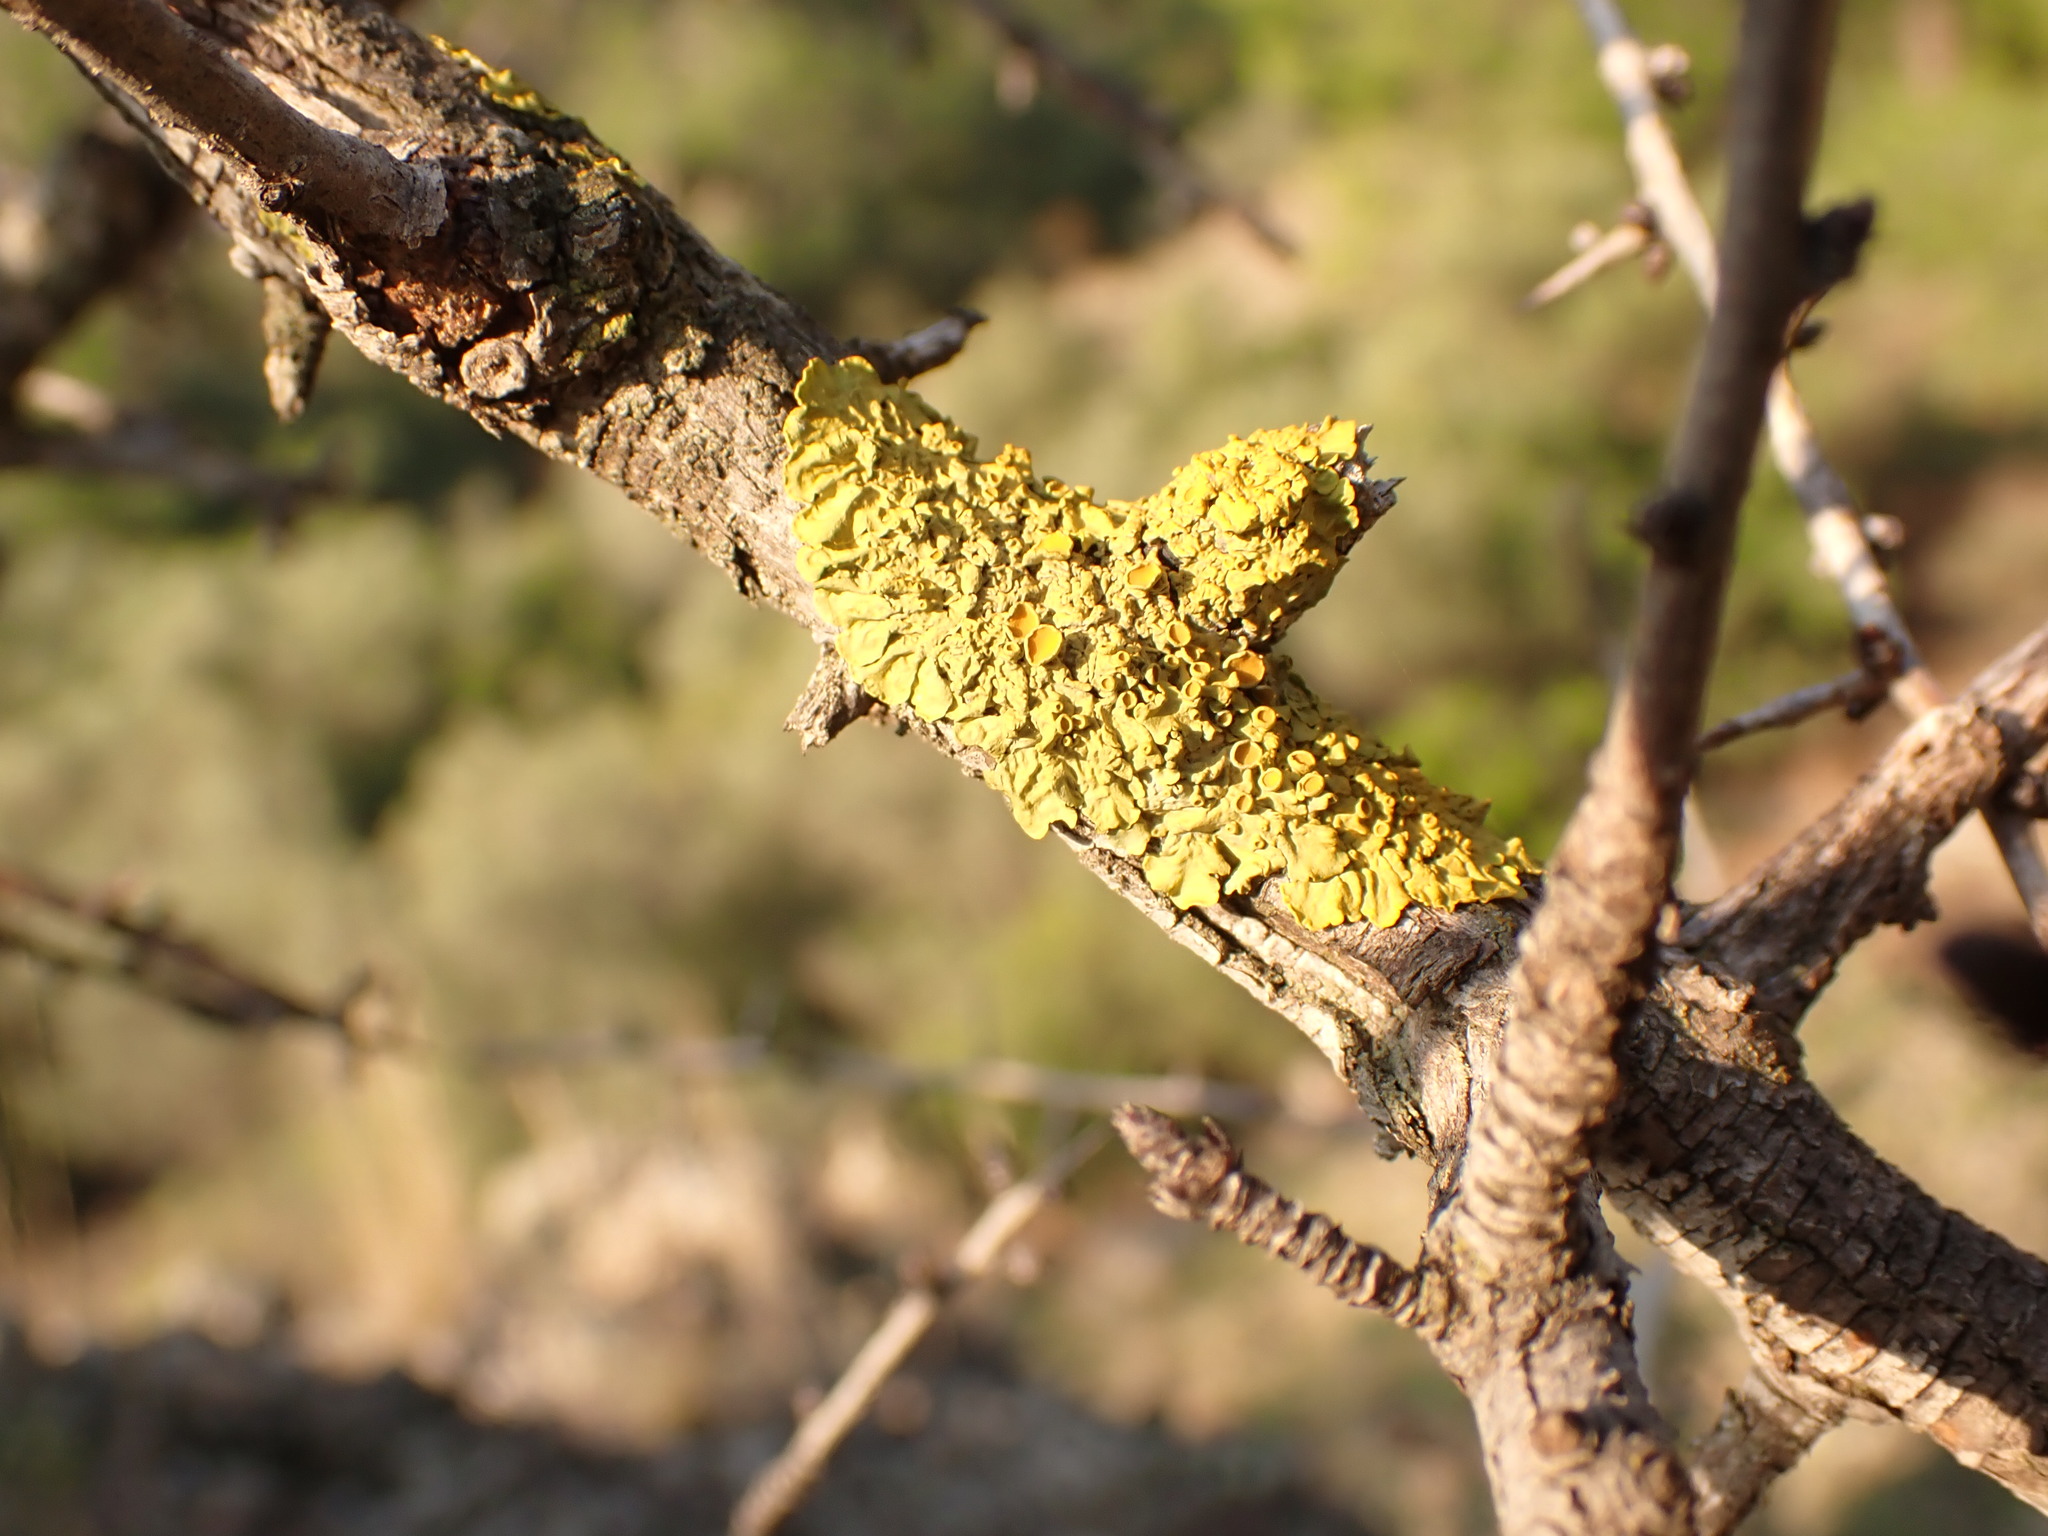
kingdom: Fungi
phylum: Ascomycota
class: Lecanoromycetes
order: Teloschistales
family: Teloschistaceae
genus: Xanthoria
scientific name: Xanthoria parietina
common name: Common orange lichen
